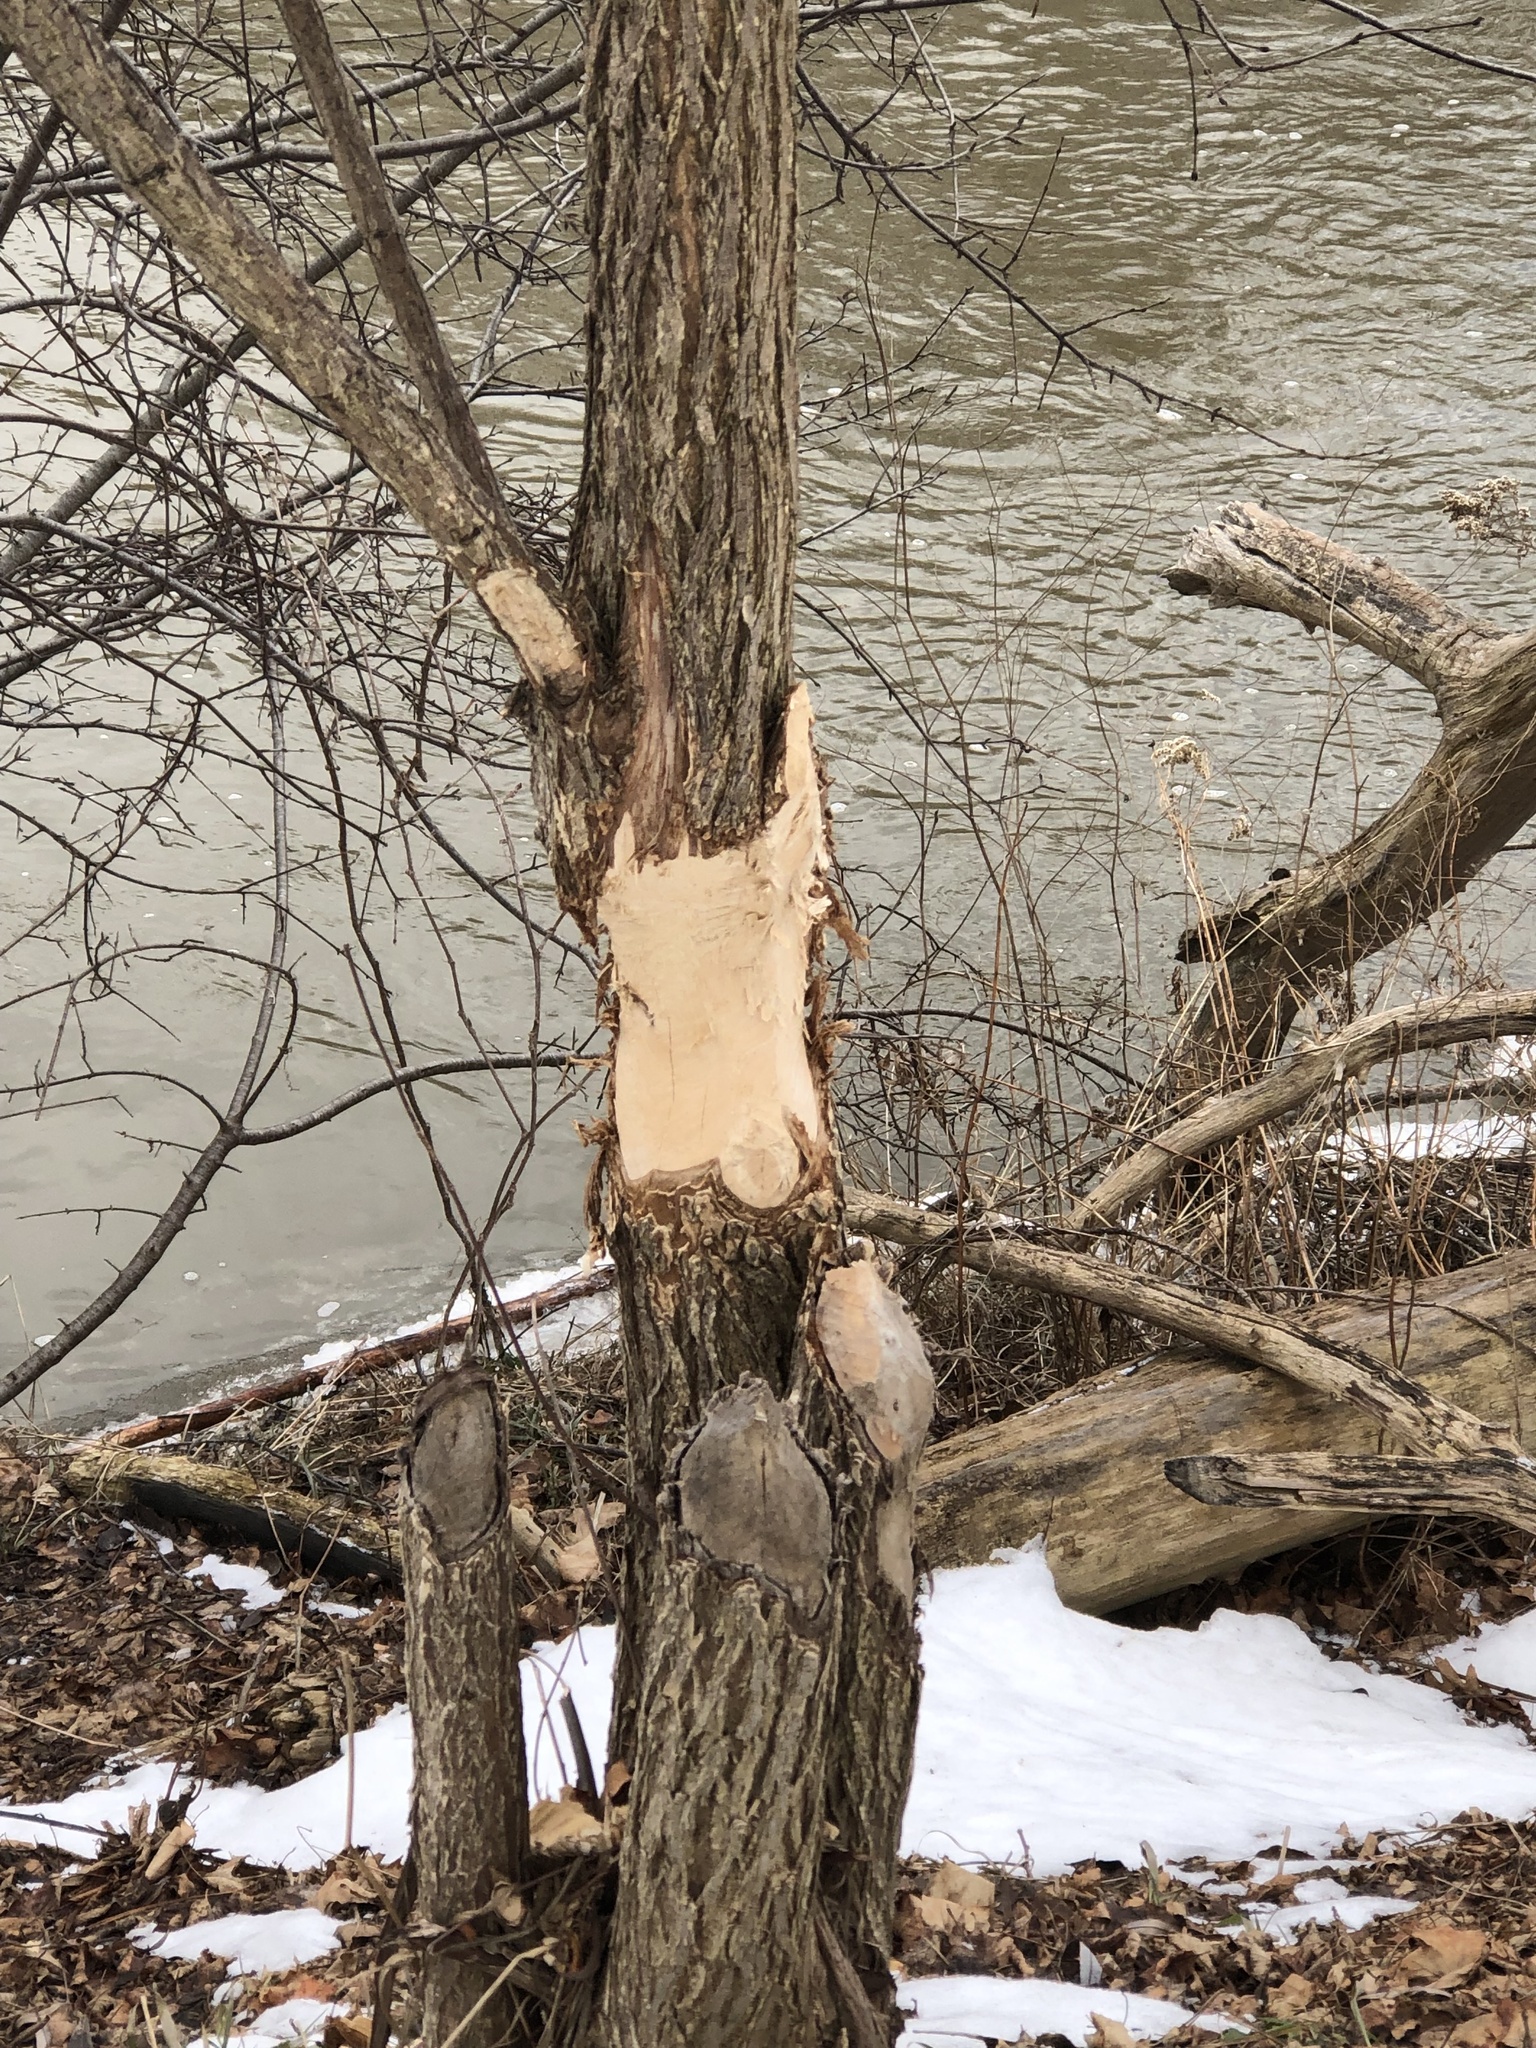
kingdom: Animalia
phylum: Chordata
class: Mammalia
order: Rodentia
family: Castoridae
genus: Castor
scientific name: Castor canadensis
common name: American beaver
